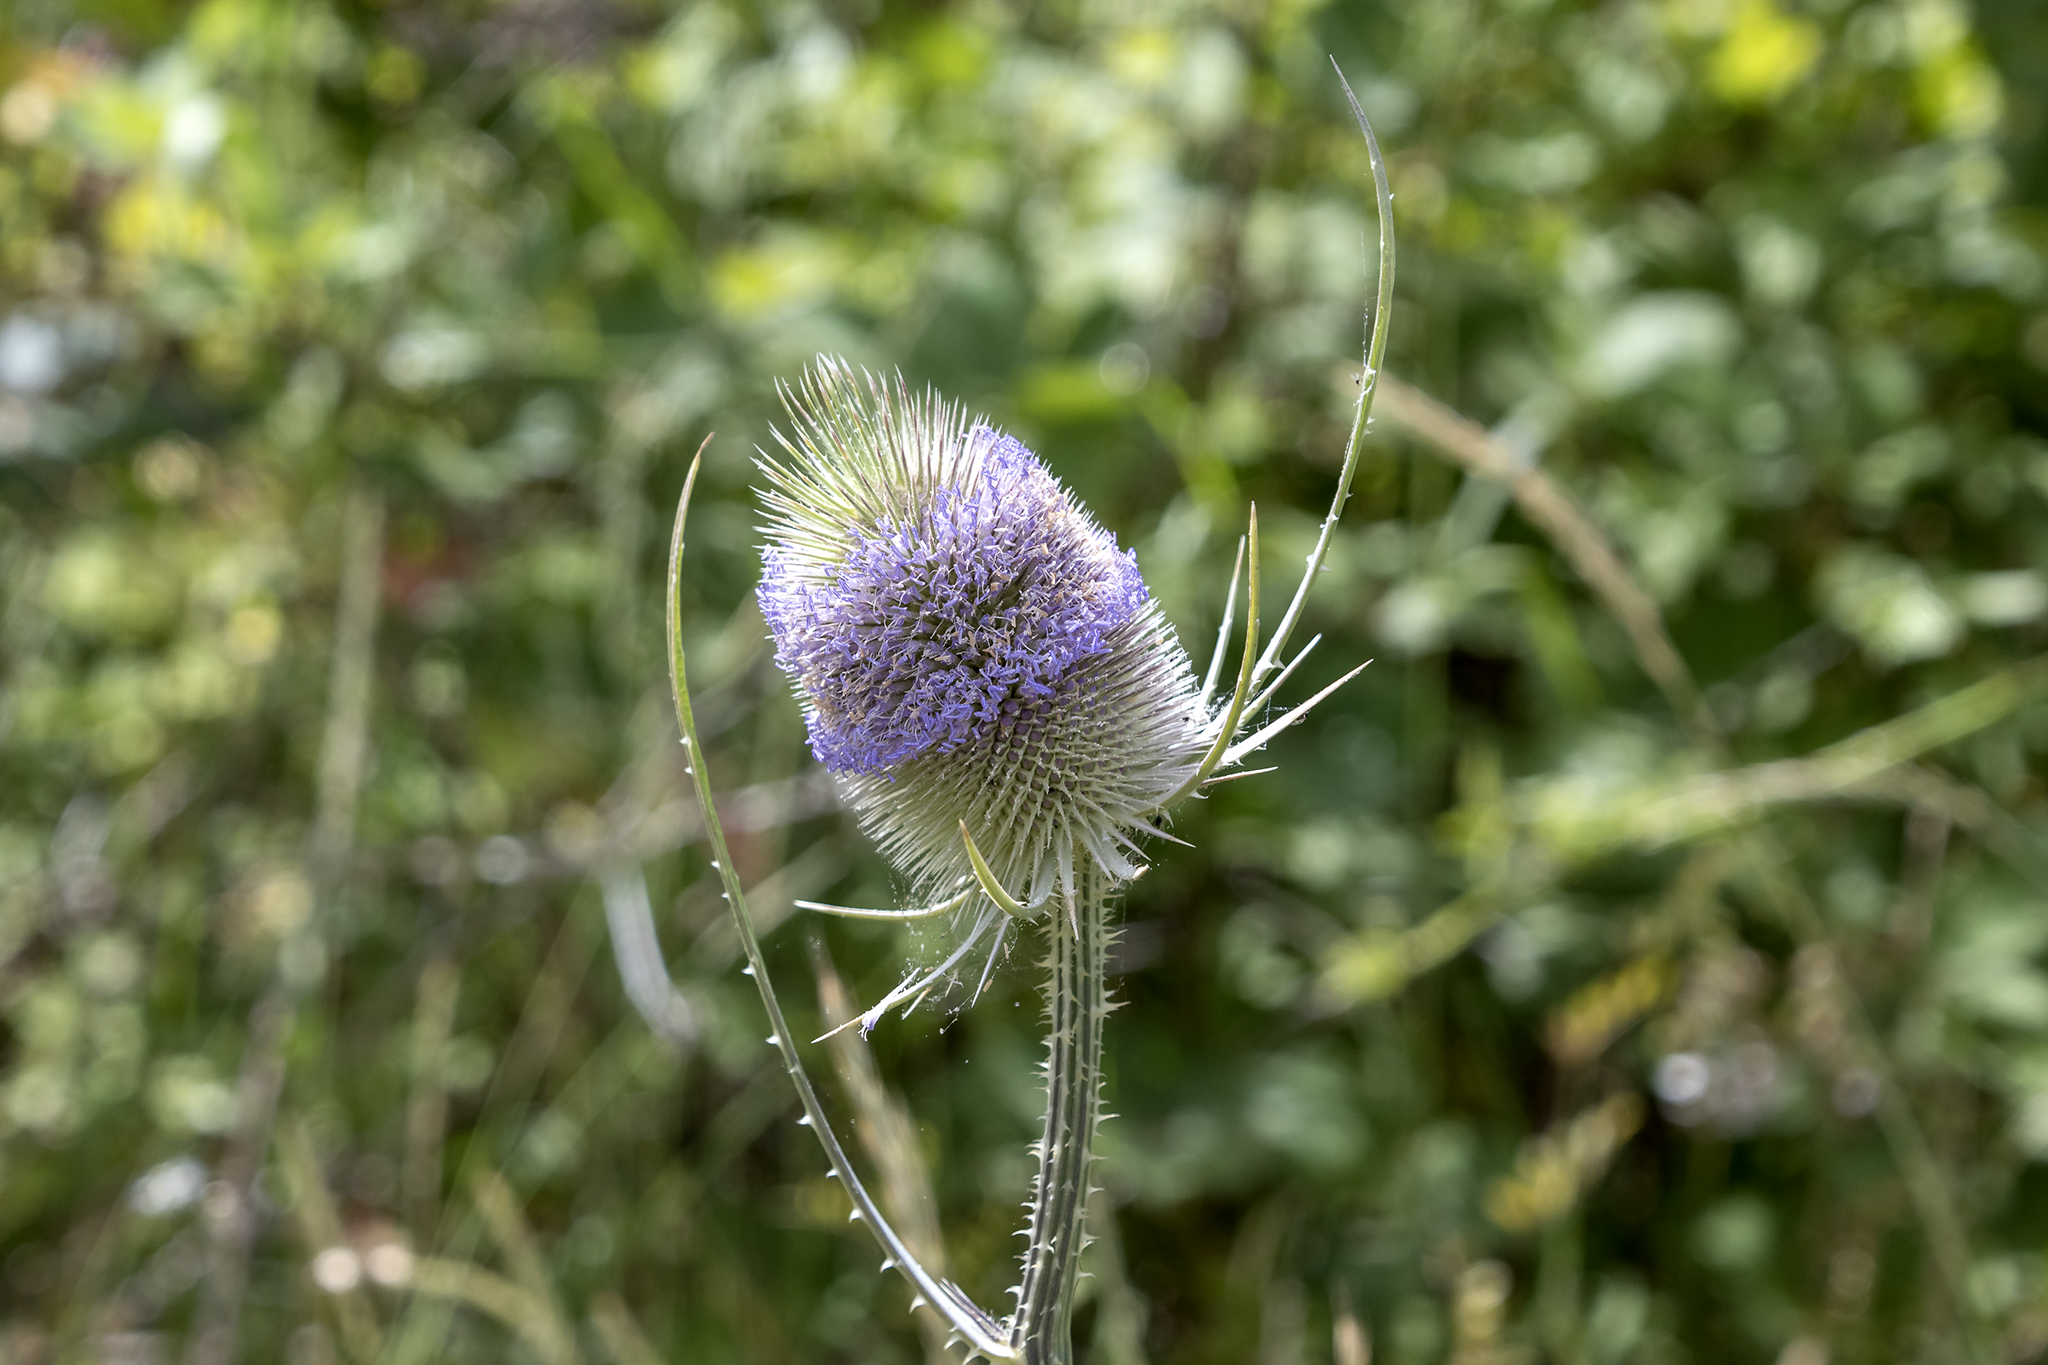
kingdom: Plantae
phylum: Tracheophyta
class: Magnoliopsida
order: Dipsacales
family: Caprifoliaceae
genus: Dipsacus
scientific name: Dipsacus fullonum
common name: Teasel
